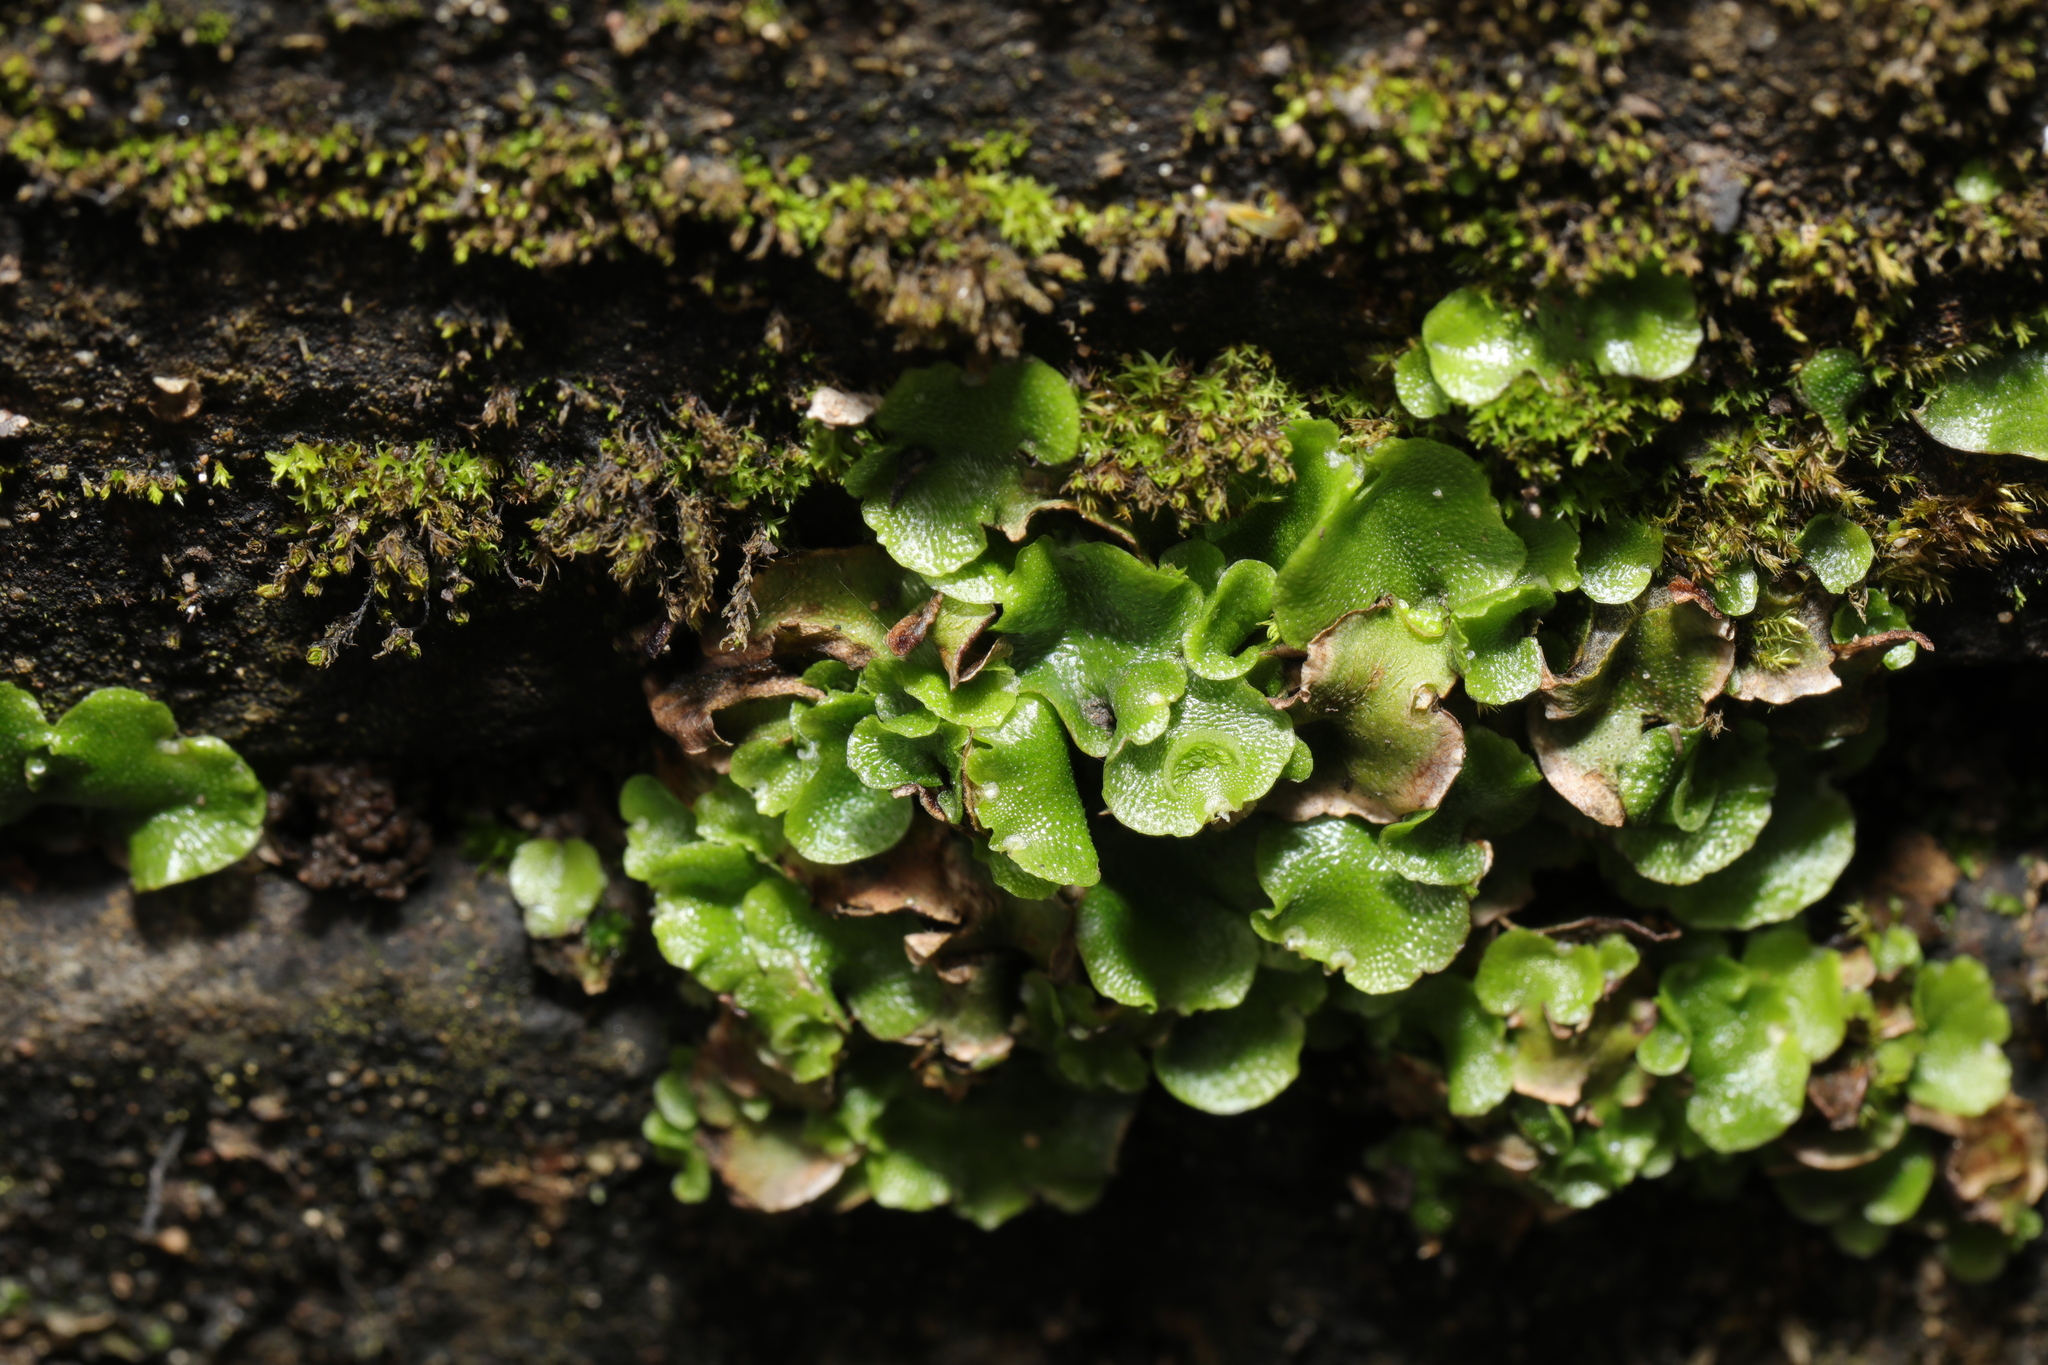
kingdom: Plantae
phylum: Marchantiophyta
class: Marchantiopsida
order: Lunulariales
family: Lunulariaceae
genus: Lunularia
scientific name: Lunularia cruciata
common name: Crescent-cup liverwort
